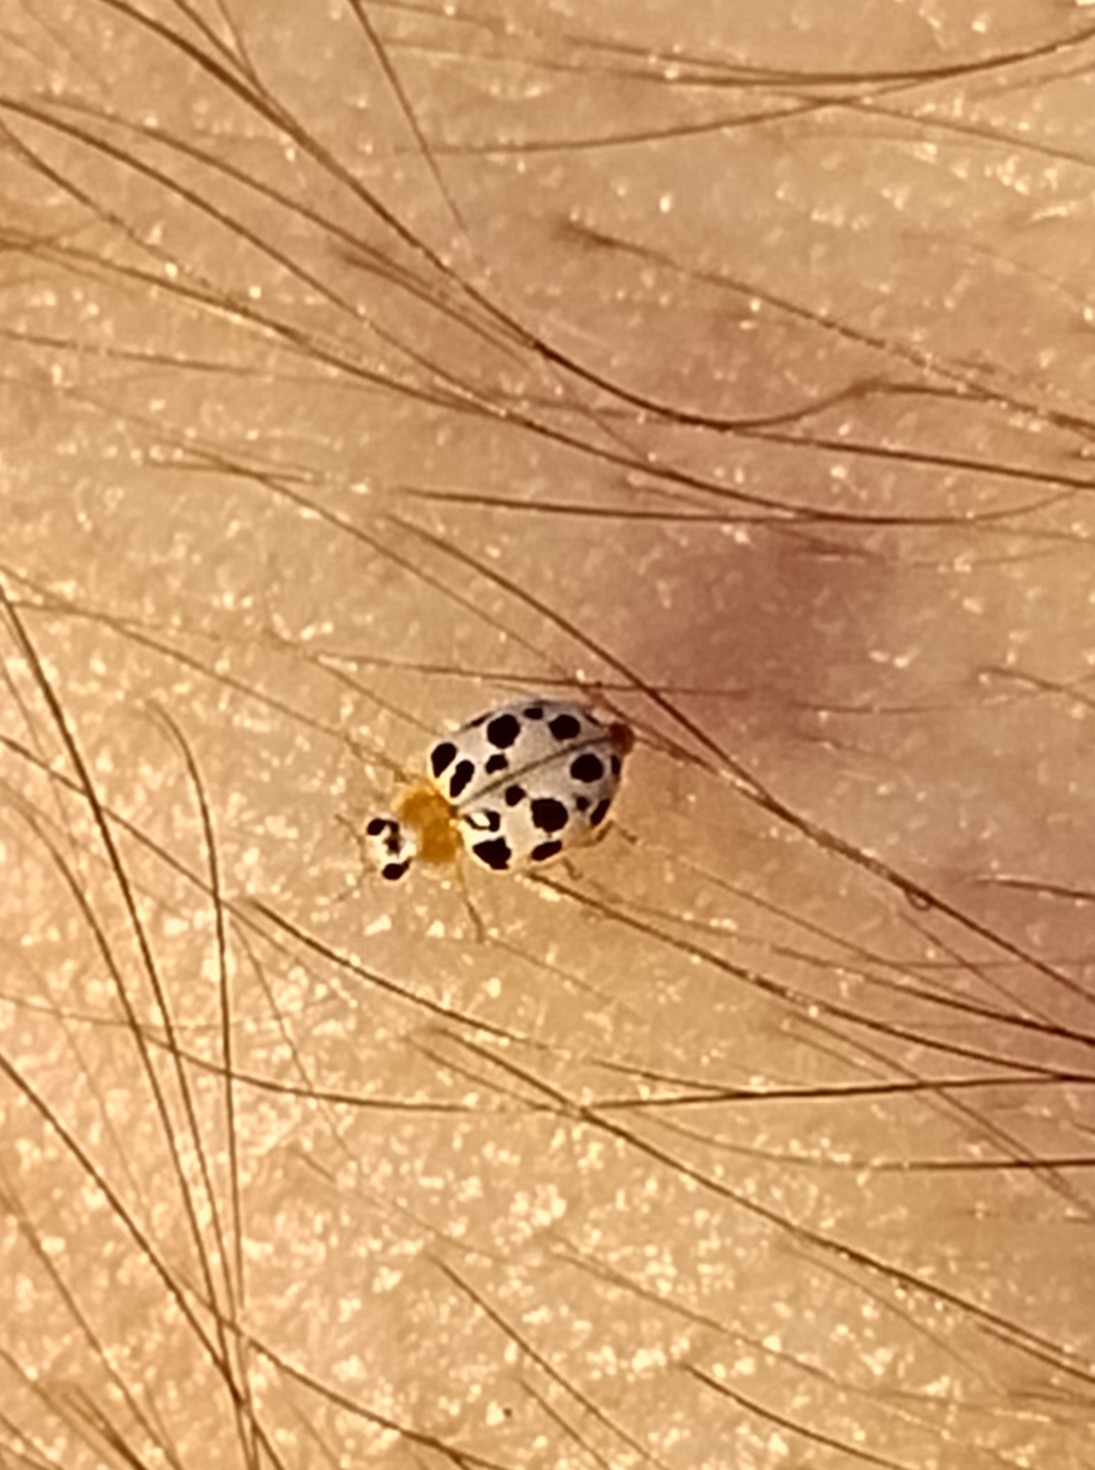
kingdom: Animalia
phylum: Arthropoda
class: Insecta
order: Coleoptera
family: Coccinellidae
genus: Psyllobora
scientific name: Psyllobora parvinotata
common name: Small-spotted psyllobora
